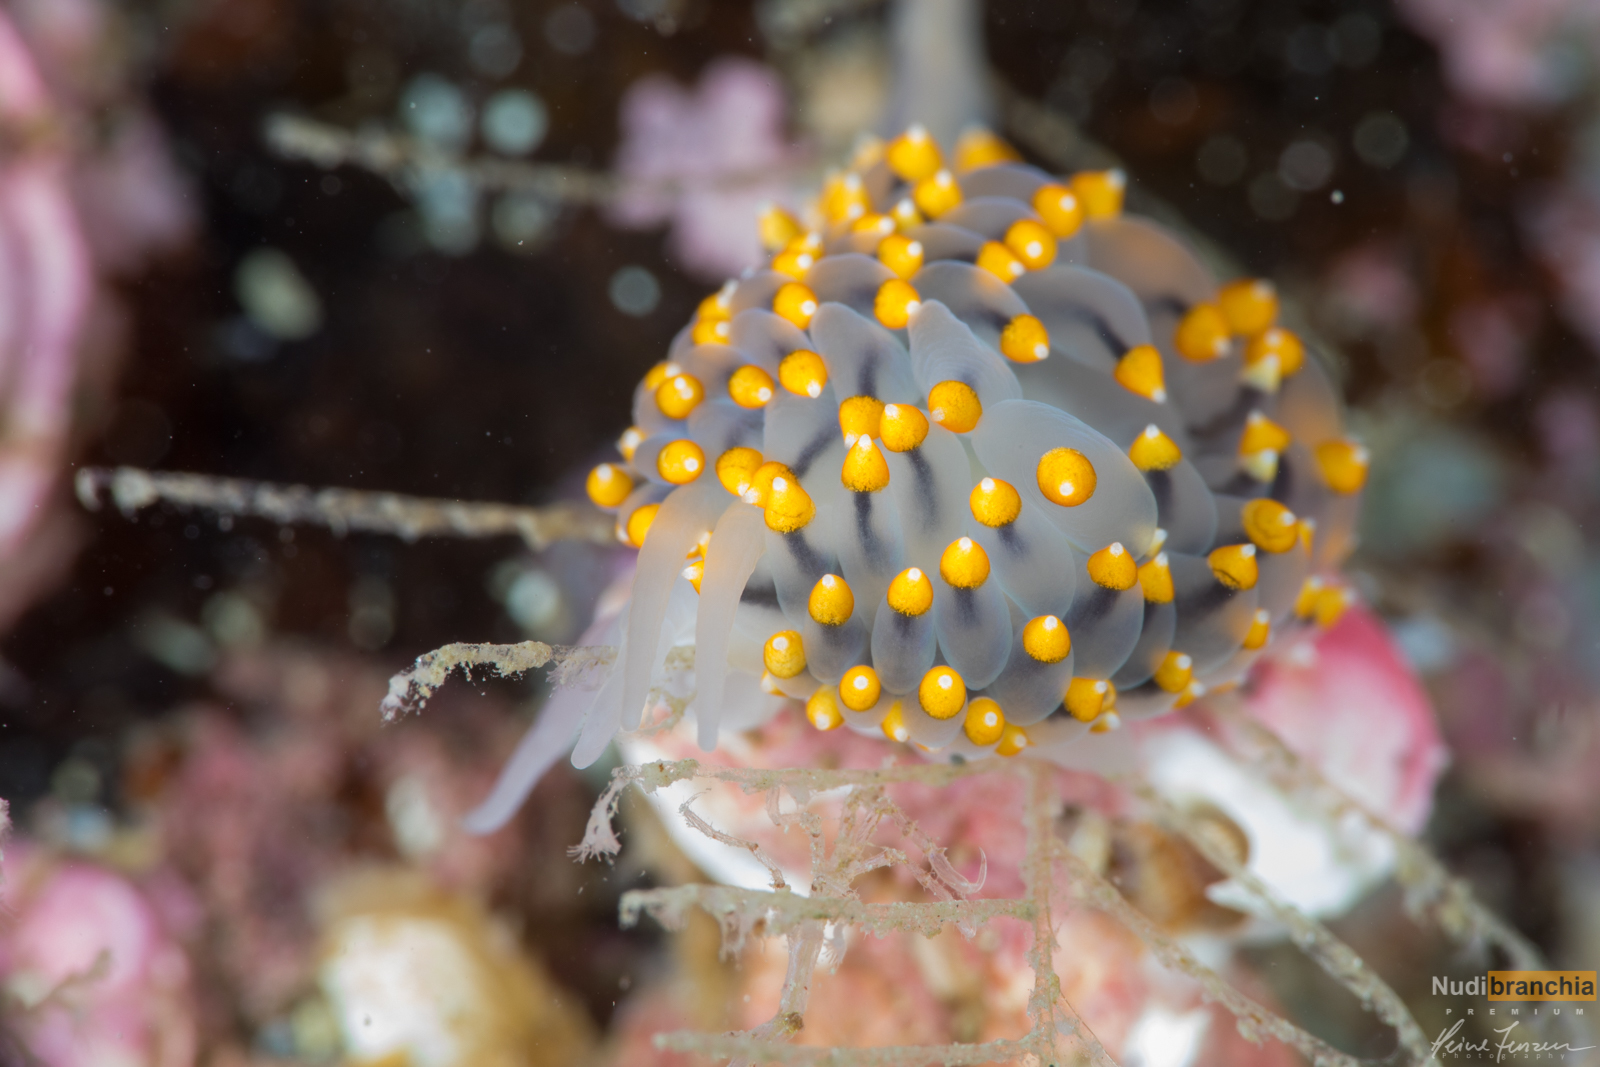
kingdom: Animalia
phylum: Mollusca
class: Gastropoda
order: Nudibranchia
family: Eubranchidae
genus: Eubranchus
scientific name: Eubranchus tricolor
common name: Painted balloon aeolis
